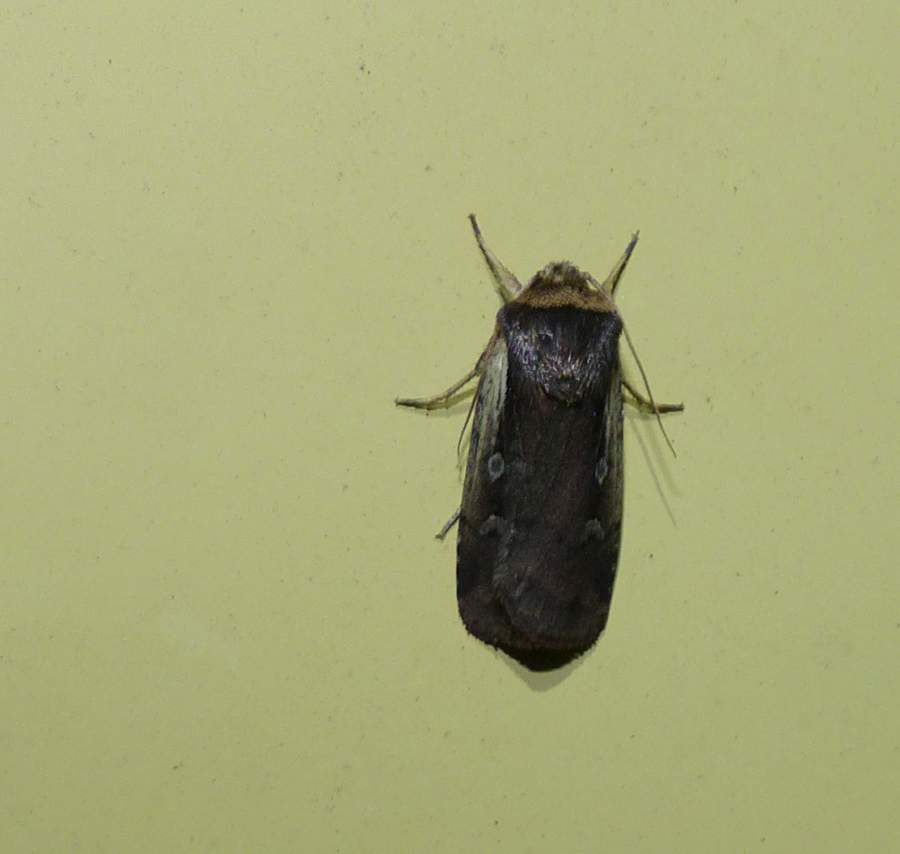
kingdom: Animalia
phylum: Arthropoda
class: Insecta
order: Lepidoptera
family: Noctuidae
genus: Ochropleura
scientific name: Ochropleura implecta
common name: Flame-shouldered dart
